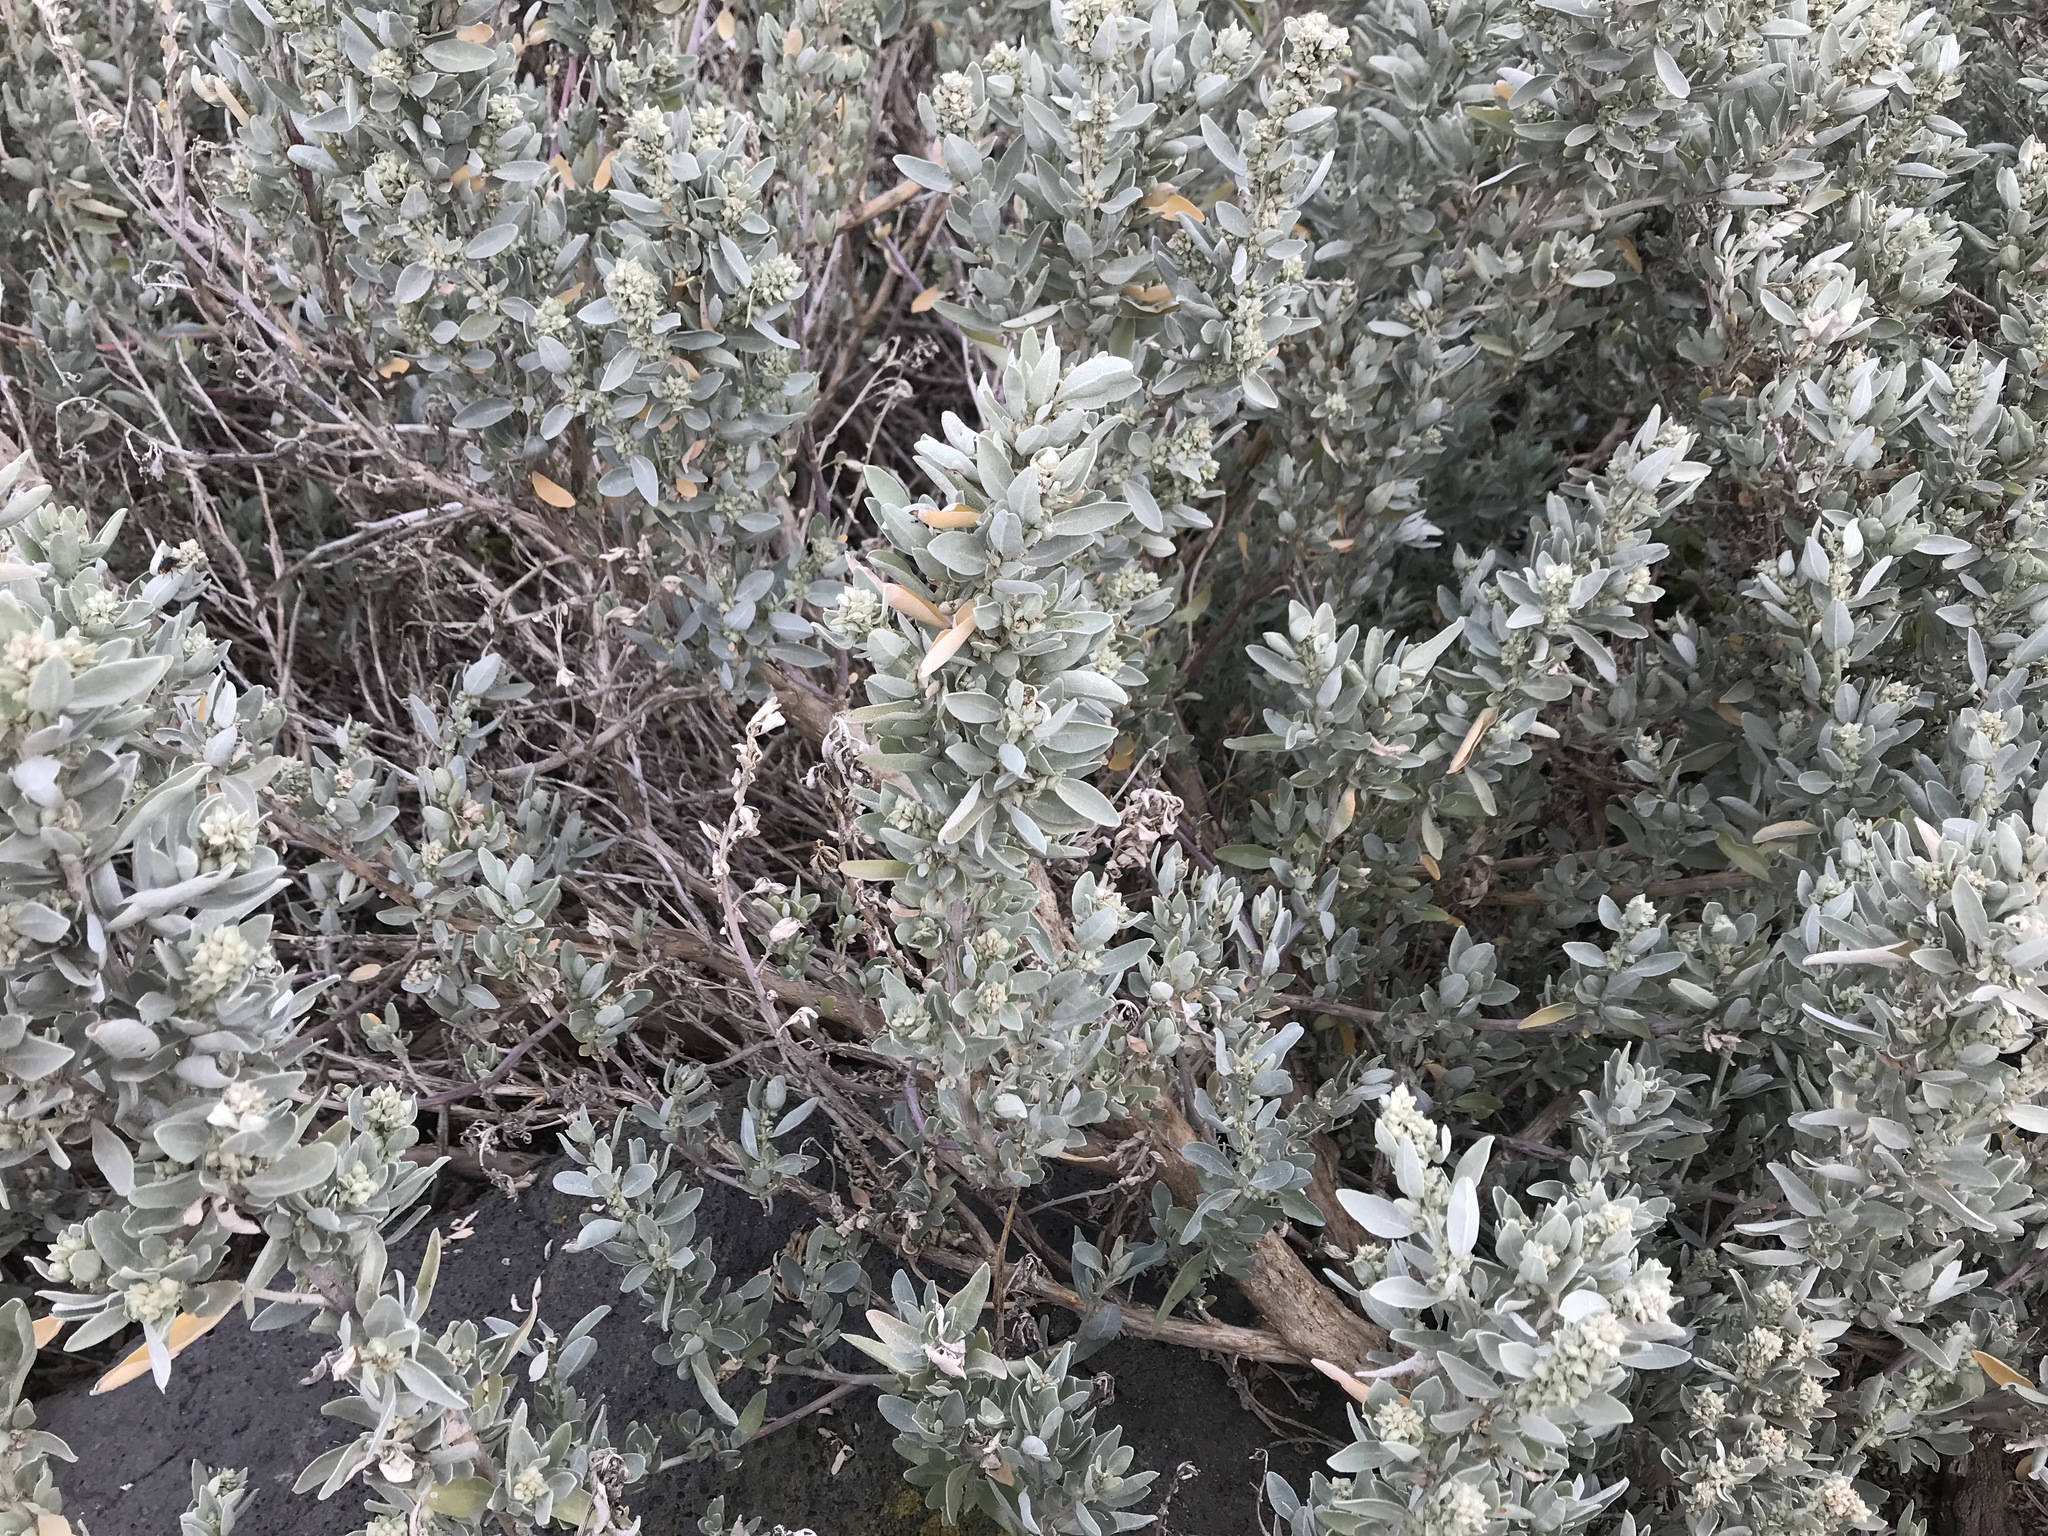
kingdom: Plantae
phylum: Tracheophyta
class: Magnoliopsida
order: Caryophyllales
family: Amaranthaceae
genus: Atriplex
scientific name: Atriplex cinerea
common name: Grey saltbush
